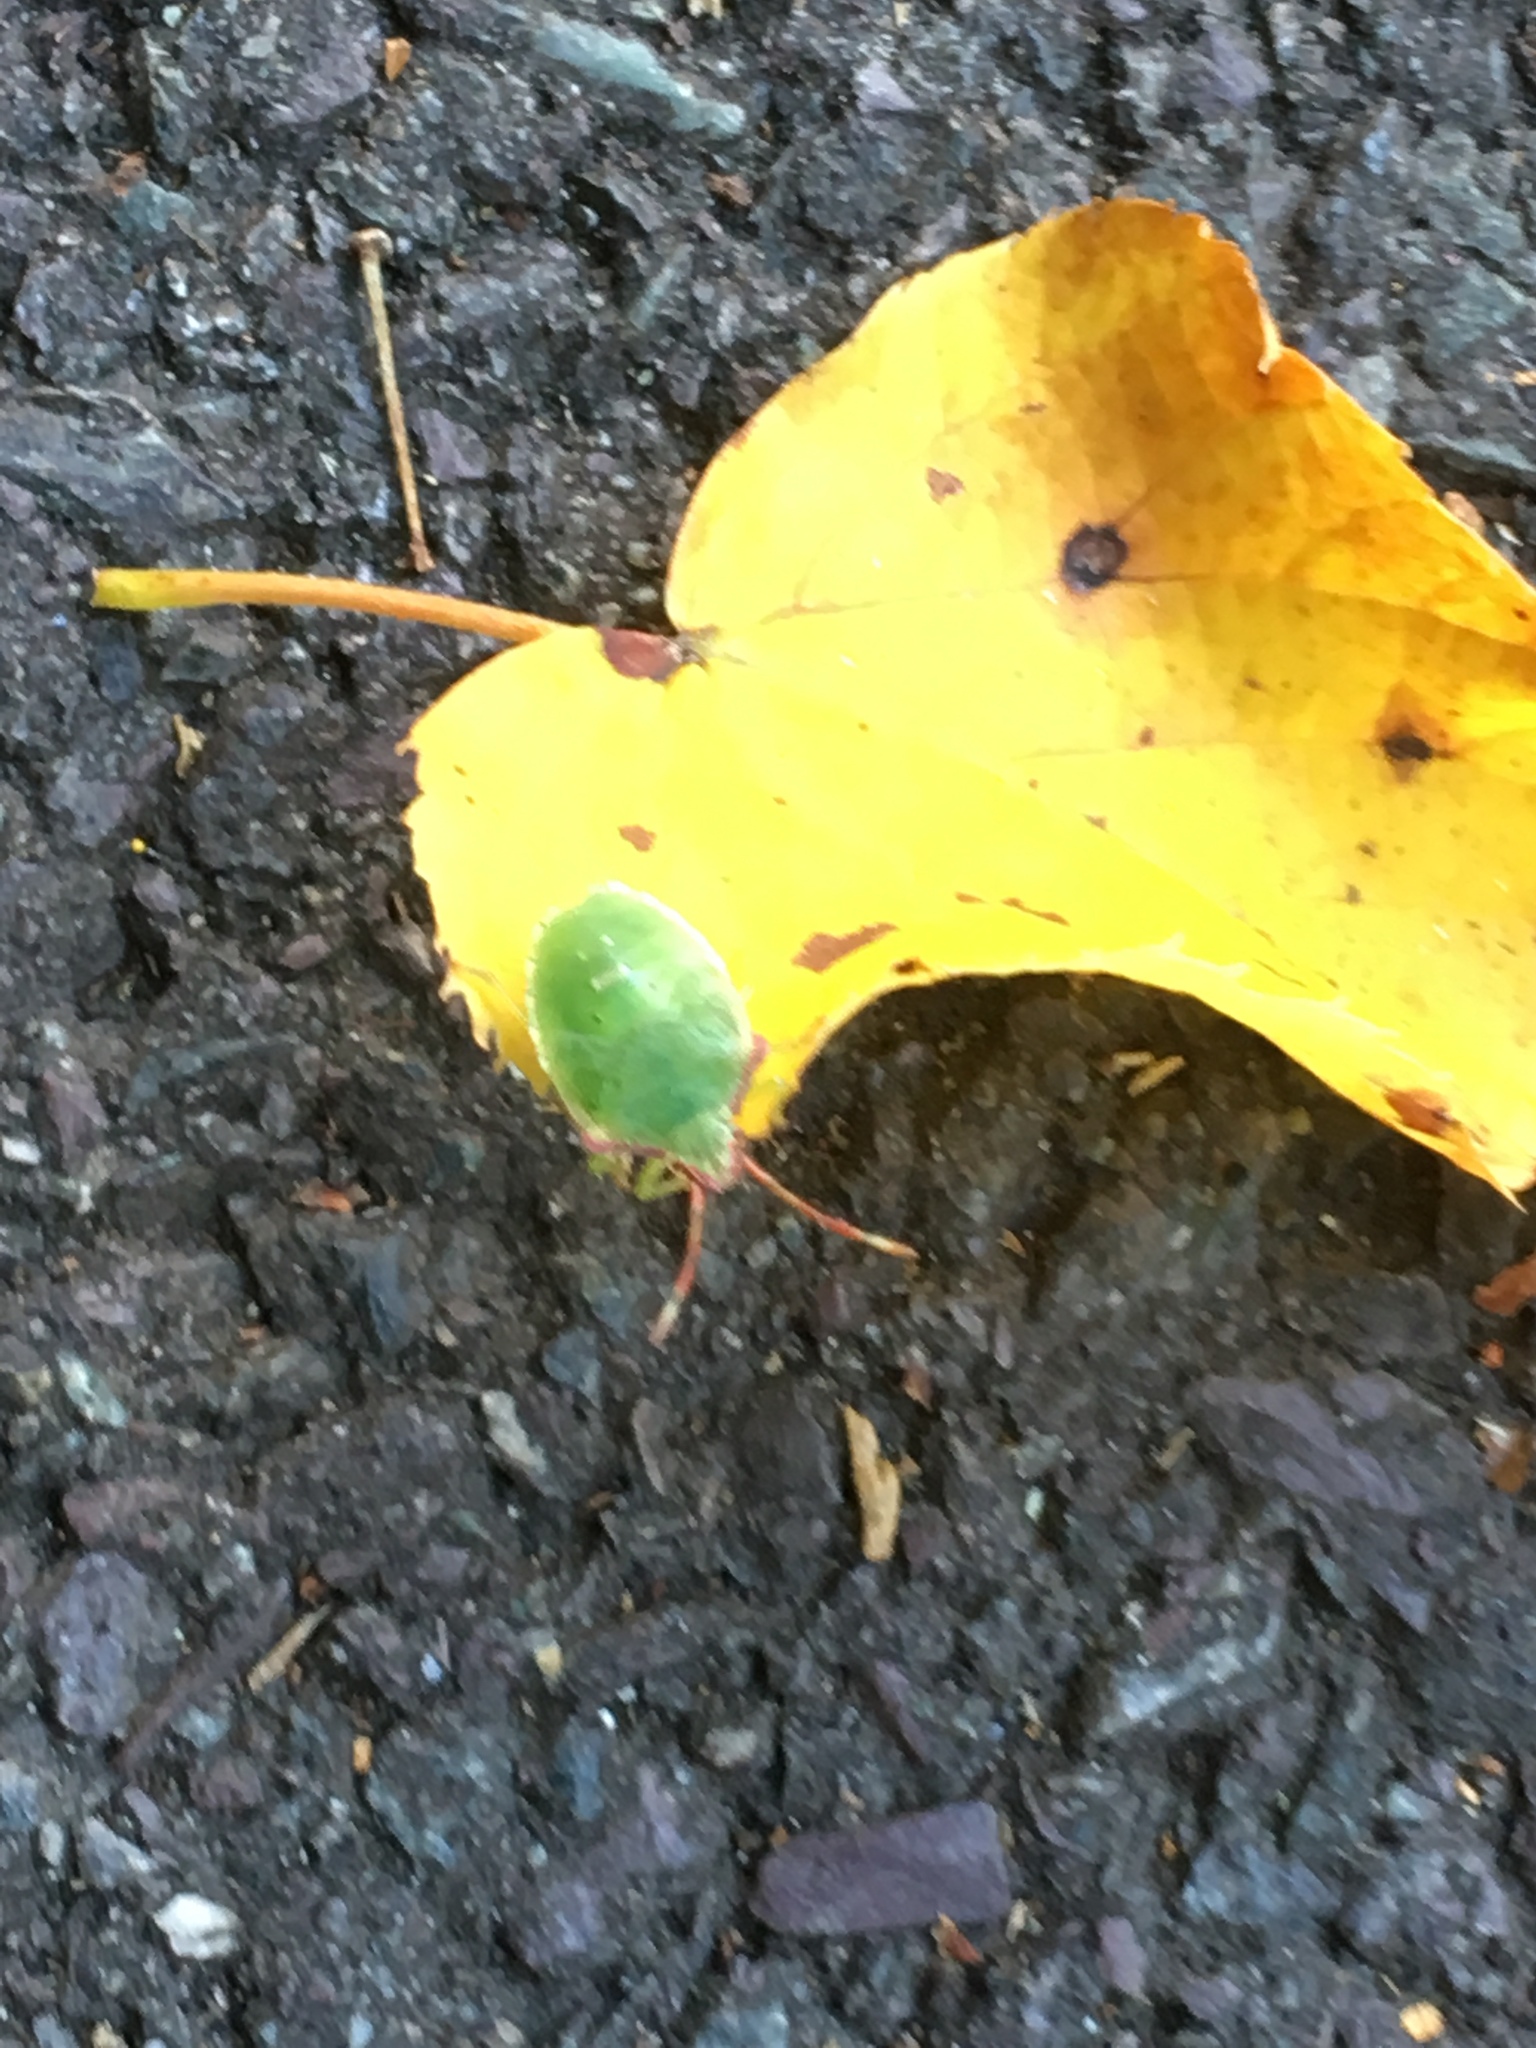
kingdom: Animalia
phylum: Arthropoda
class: Insecta
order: Hemiptera
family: Acanthosomatidae
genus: Acanthosoma
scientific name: Acanthosoma haemorrhoidale
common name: Hawthorn shieldbug
